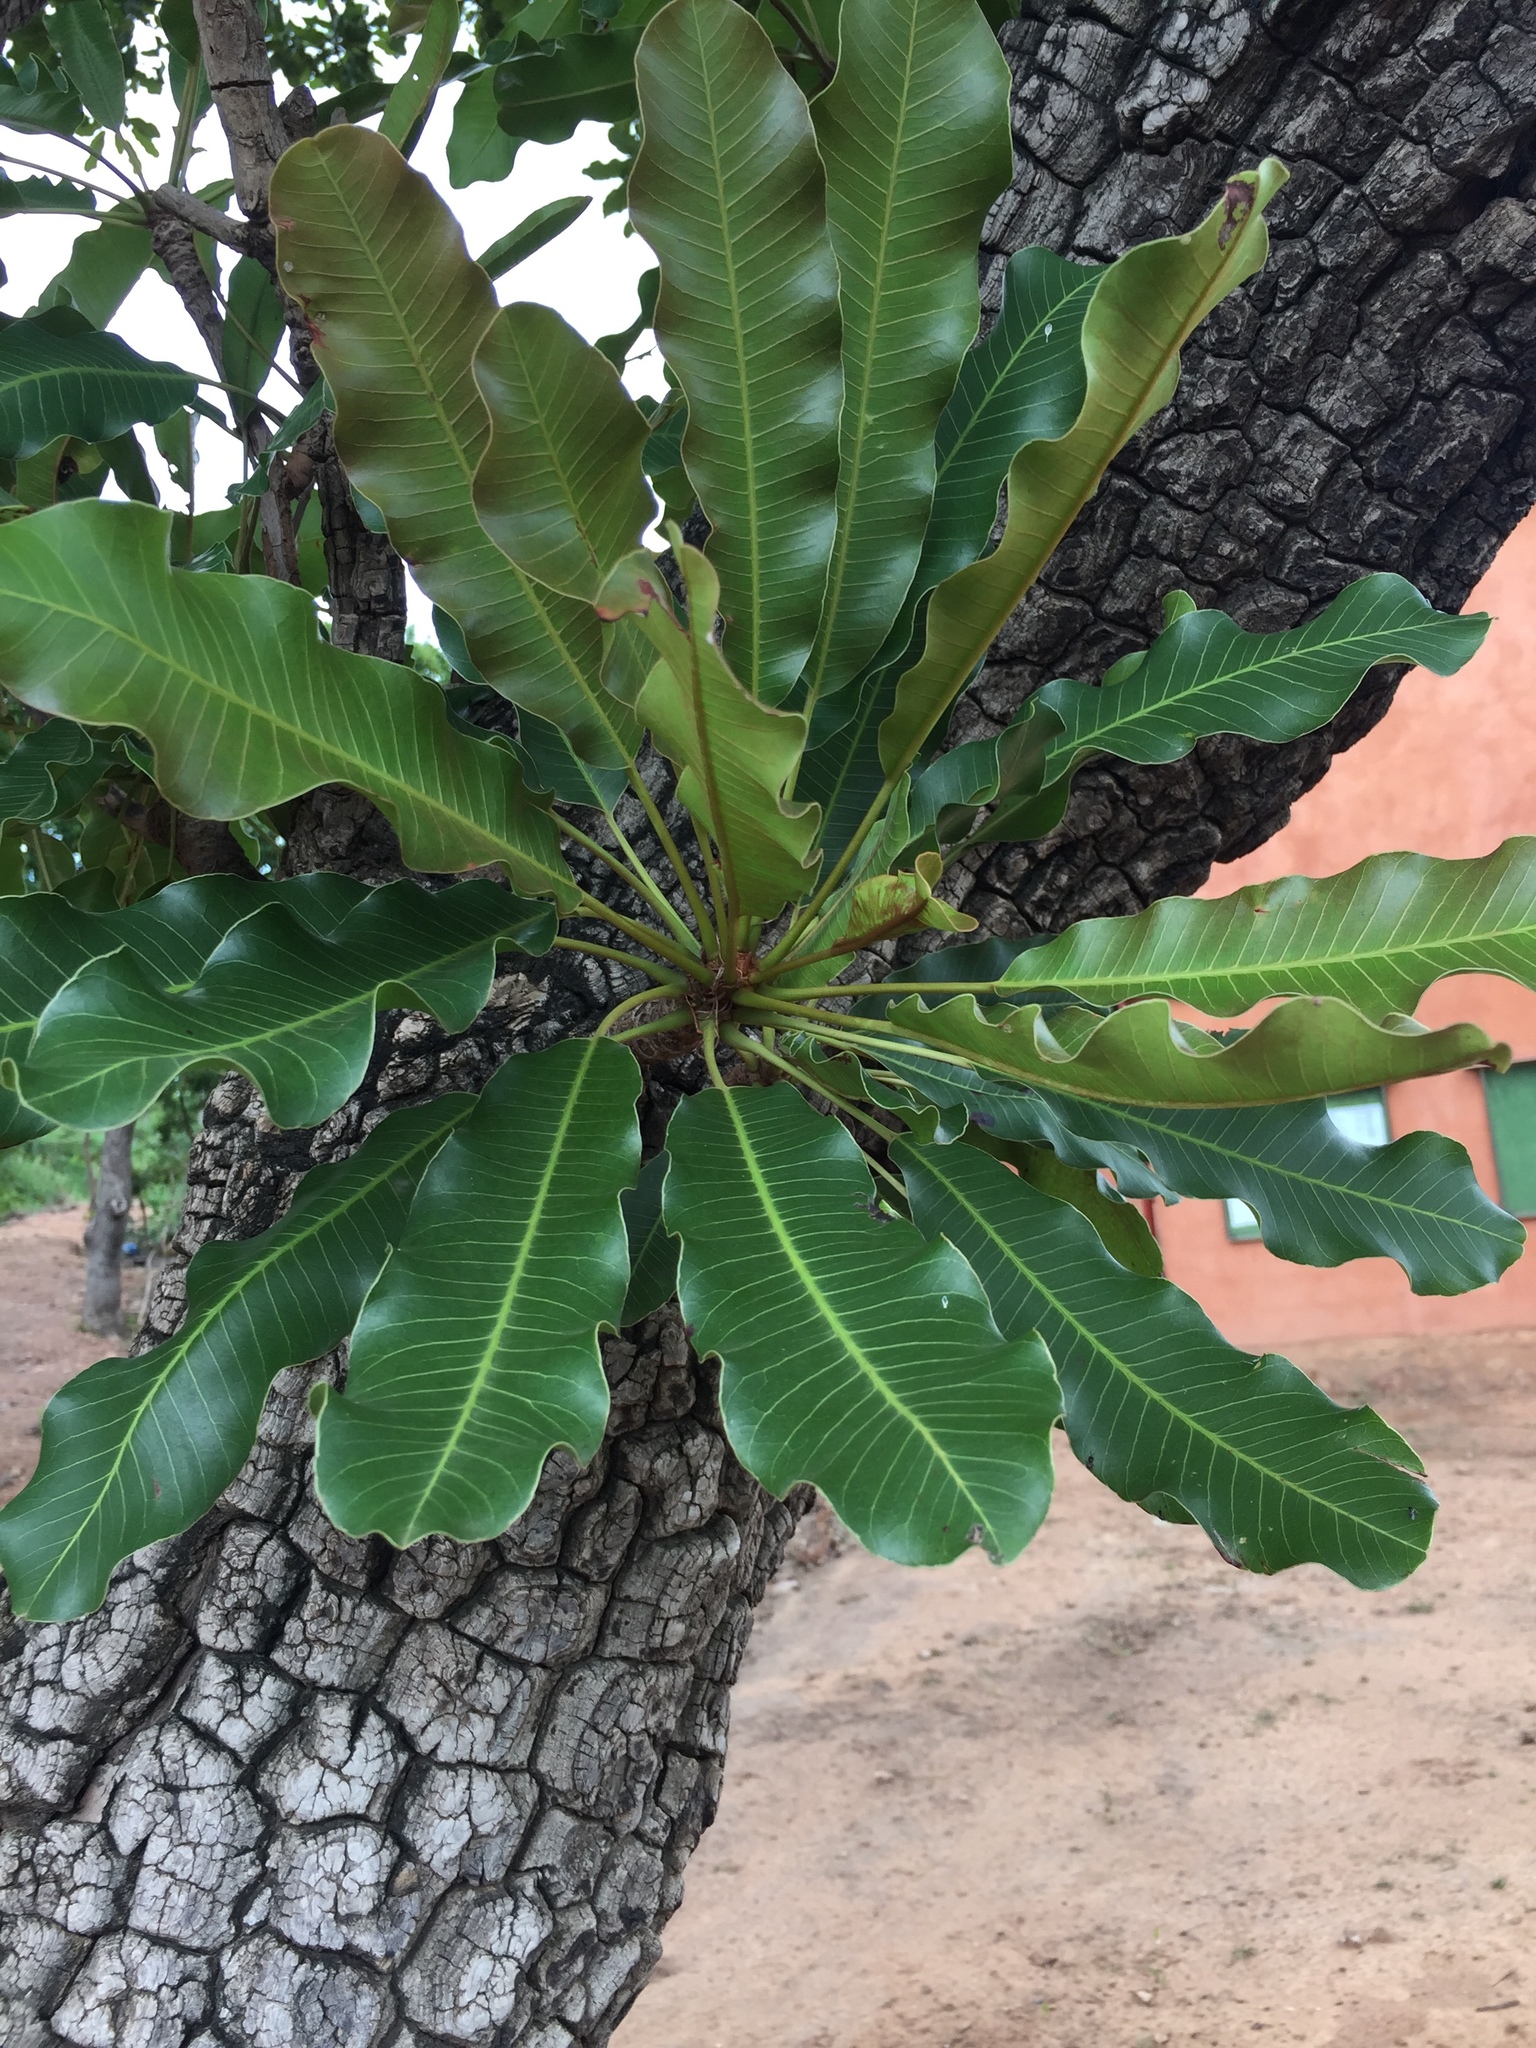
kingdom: Plantae
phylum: Tracheophyta
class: Magnoliopsida
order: Ericales
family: Sapotaceae
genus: Vitellaria
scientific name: Vitellaria paradoxa
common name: Shea butter tree
